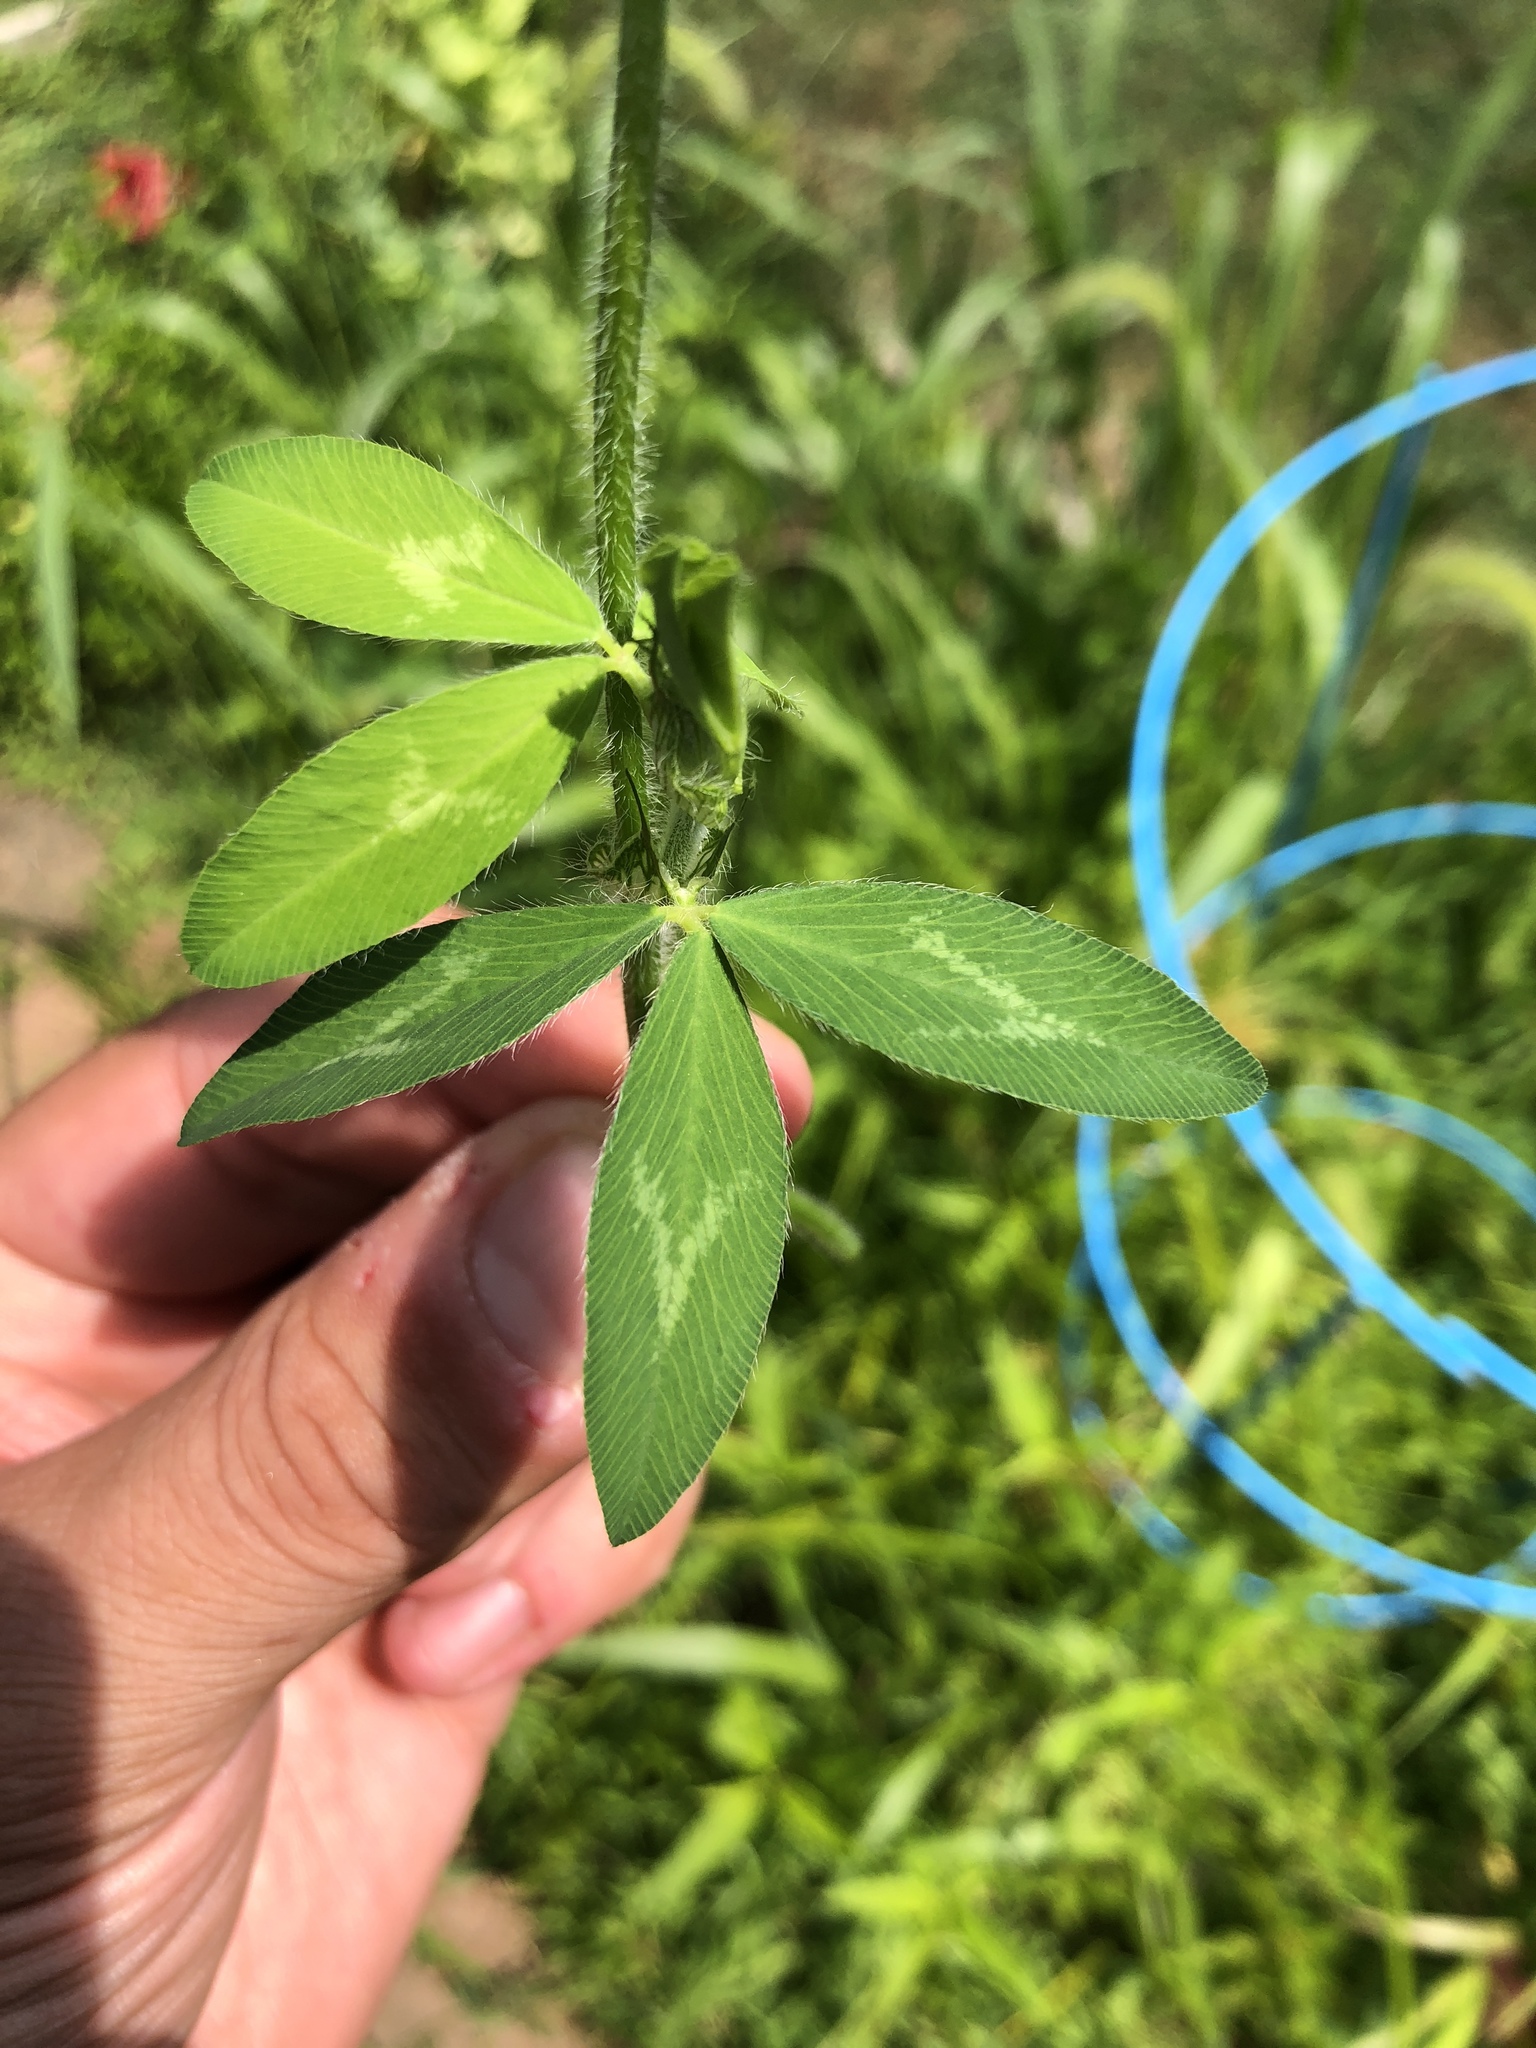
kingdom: Plantae
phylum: Tracheophyta
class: Magnoliopsida
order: Fabales
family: Fabaceae
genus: Trifolium
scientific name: Trifolium pratense
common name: Red clover
